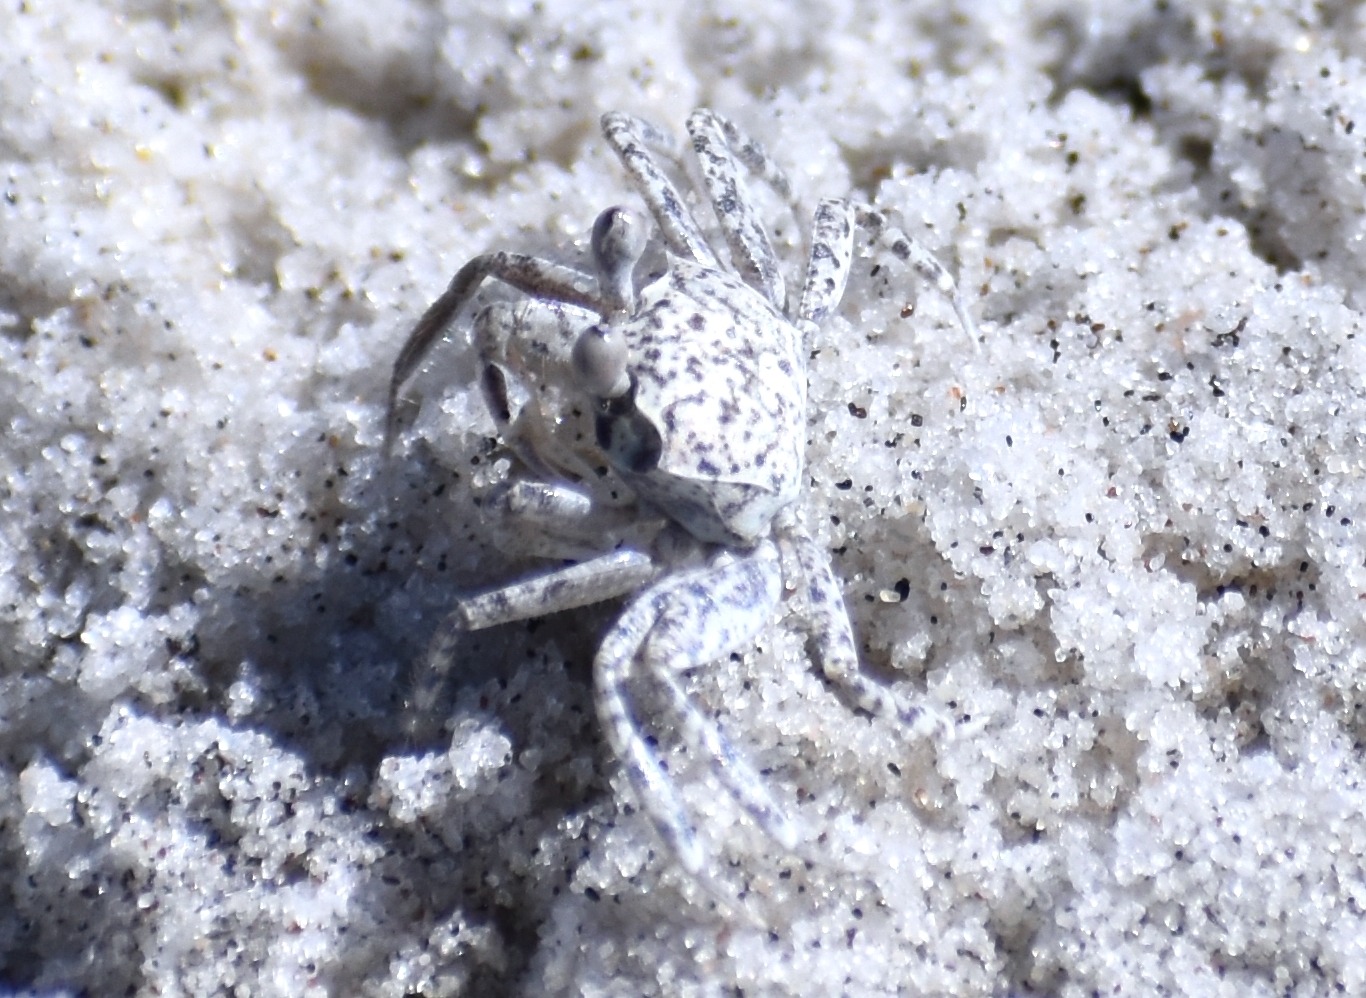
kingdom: Animalia
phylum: Arthropoda
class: Malacostraca
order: Decapoda
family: Ocypodidae
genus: Ocypode
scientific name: Ocypode quadrata
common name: Ghost crab
